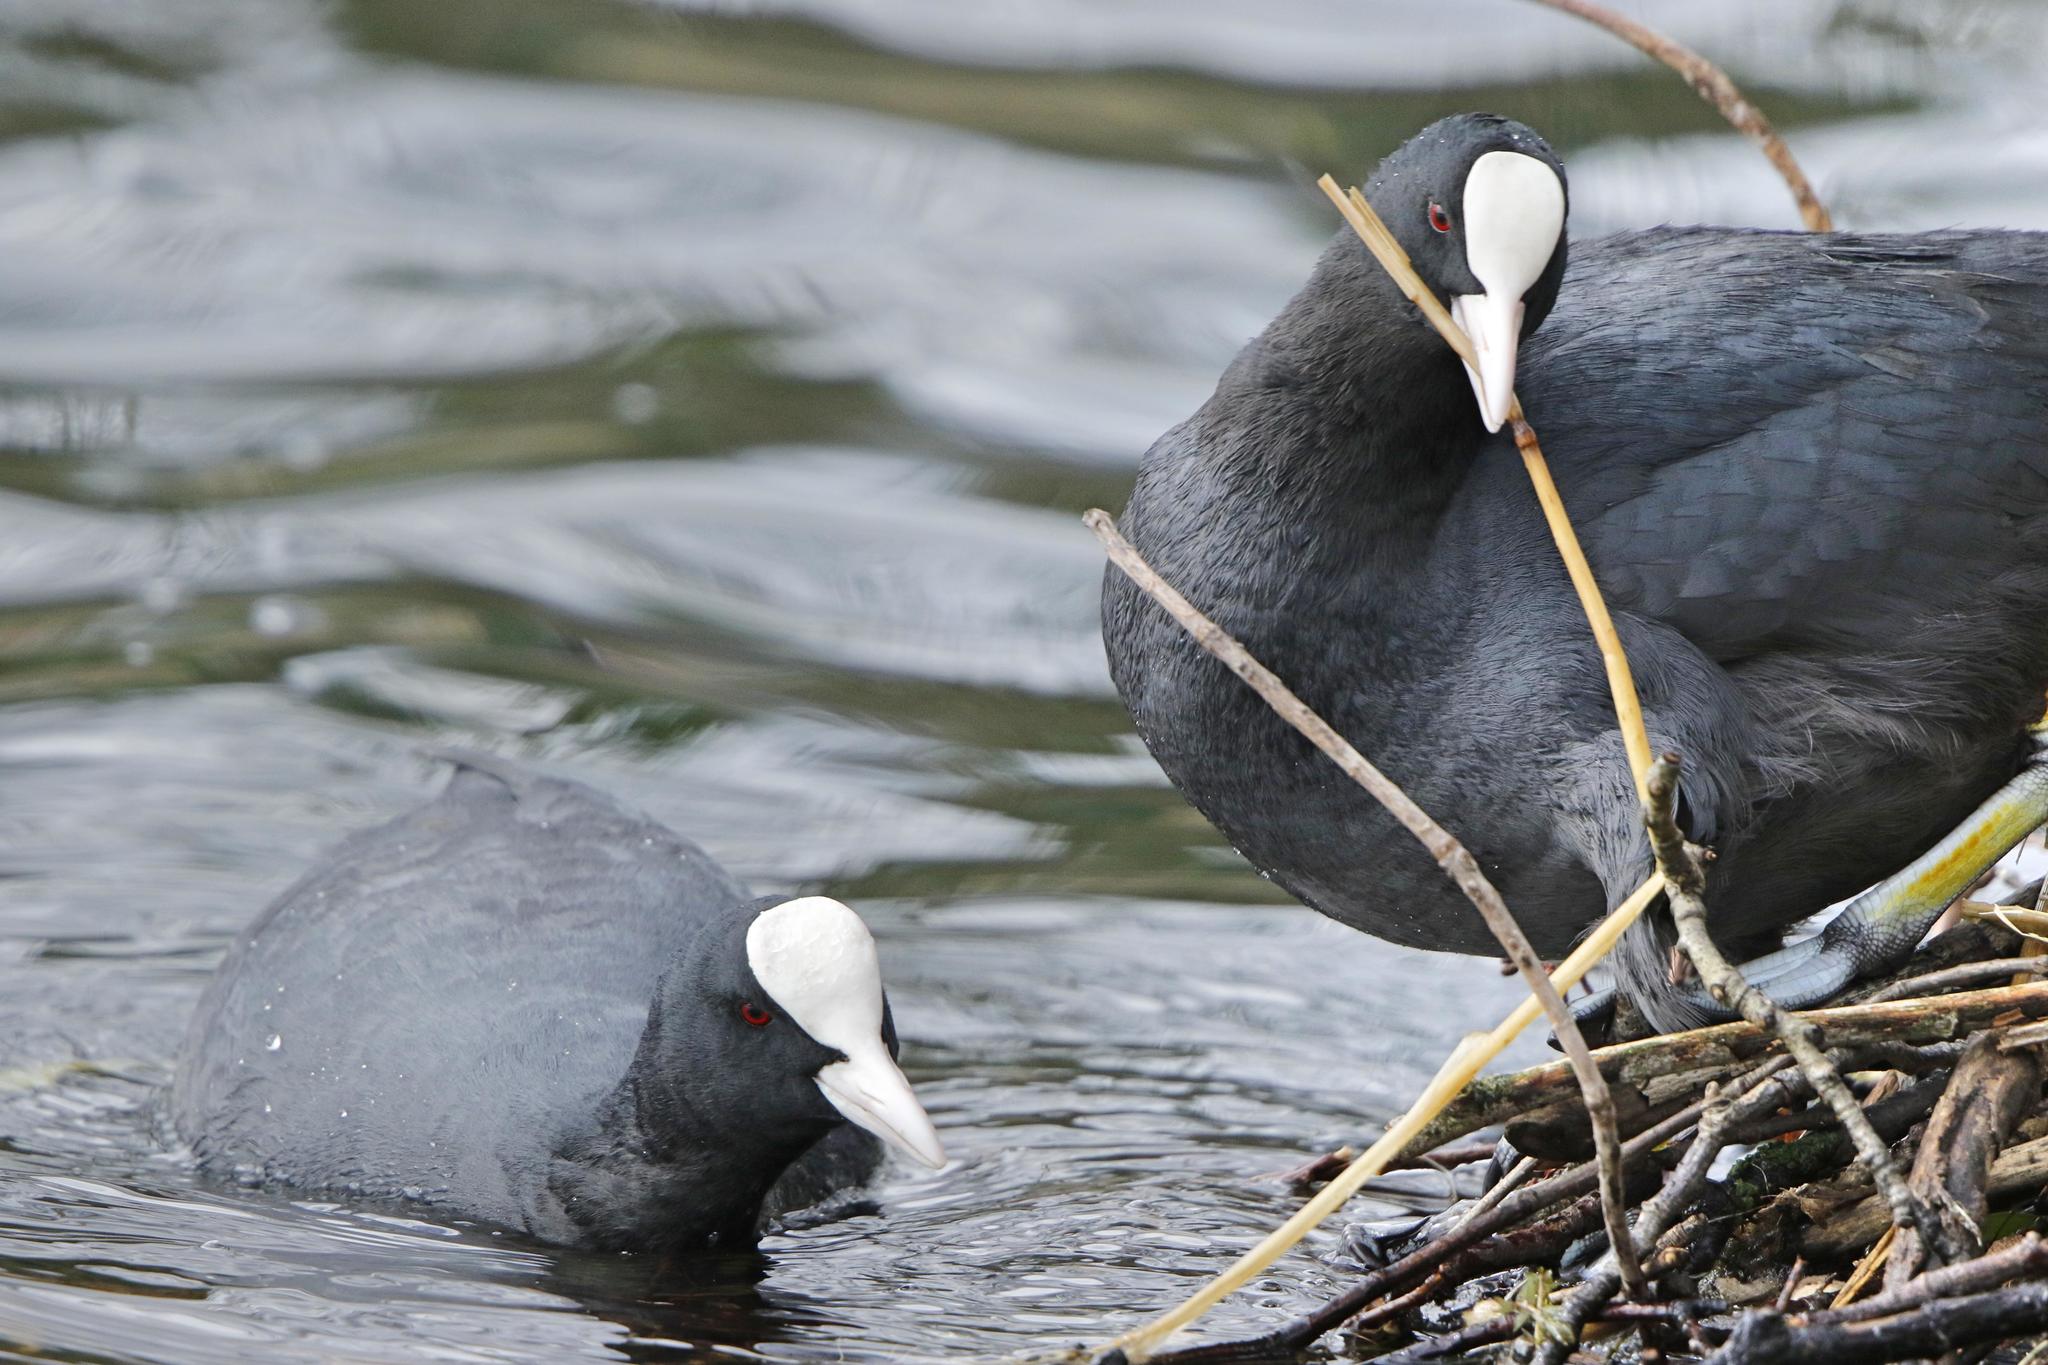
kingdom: Animalia
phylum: Chordata
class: Aves
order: Gruiformes
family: Rallidae
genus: Fulica
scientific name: Fulica atra
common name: Eurasian coot
